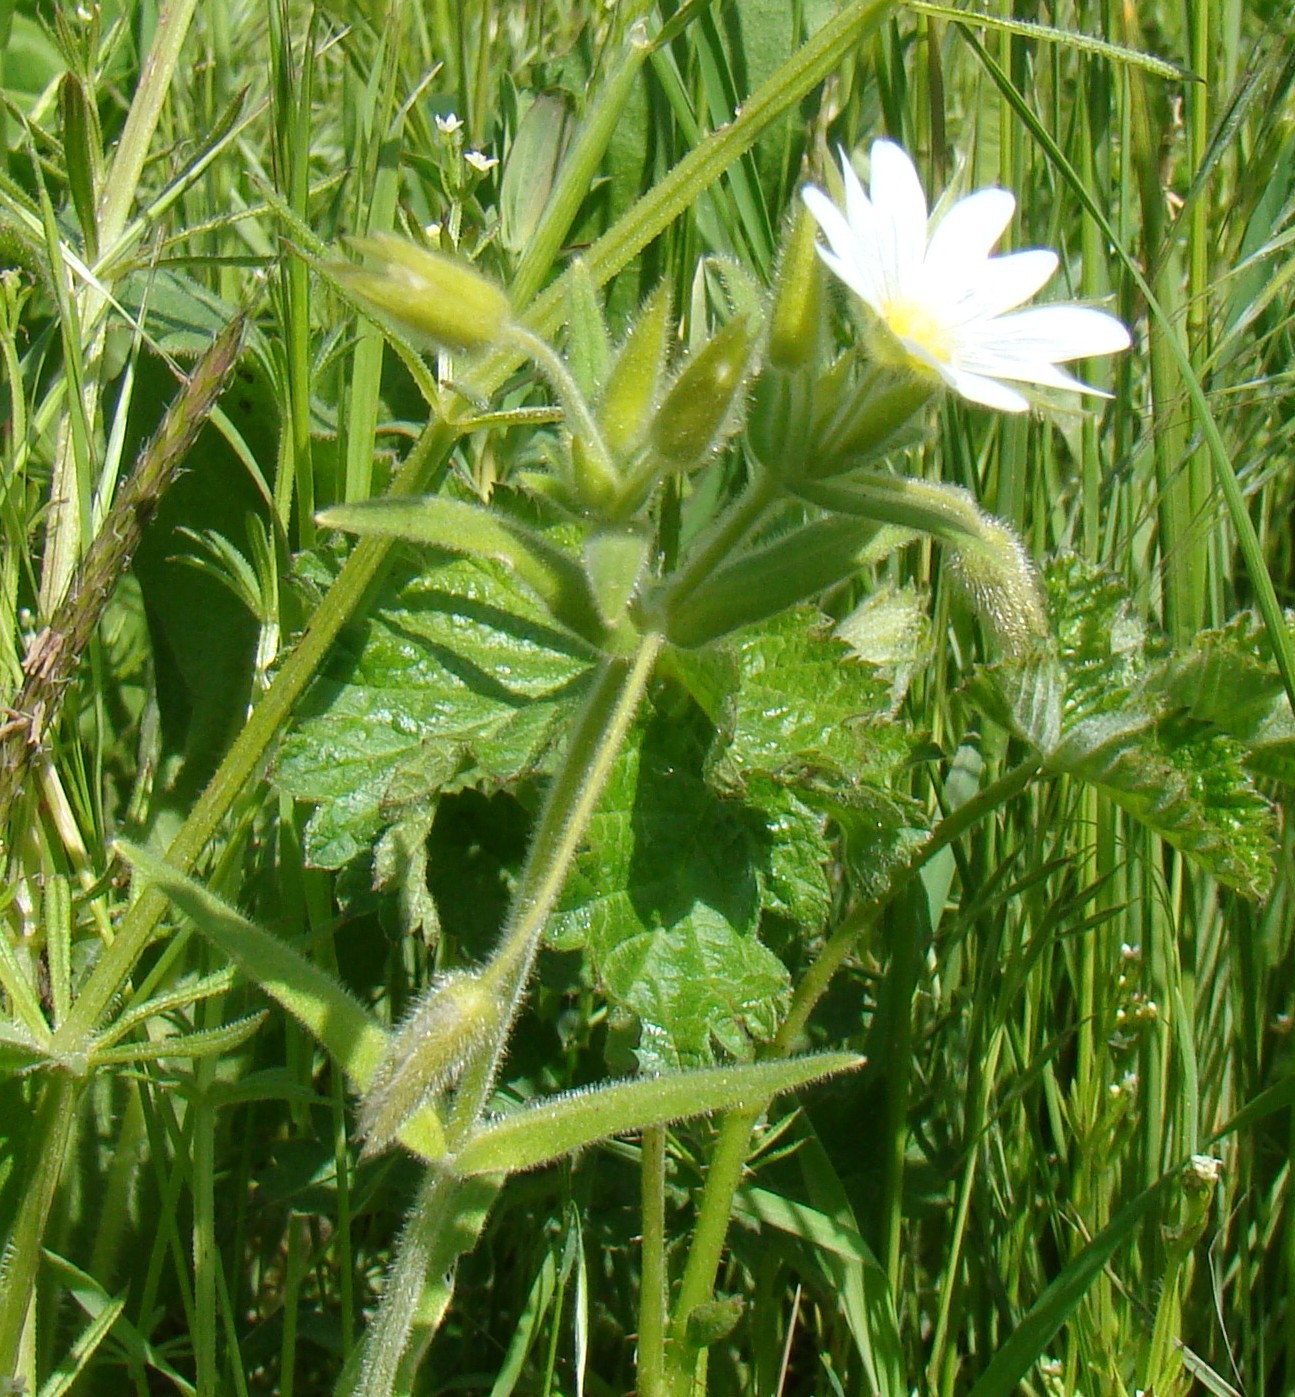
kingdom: Plantae
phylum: Tracheophyta
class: Magnoliopsida
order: Caryophyllales
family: Caryophyllaceae
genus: Cerastium
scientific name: Cerastium nemorale
